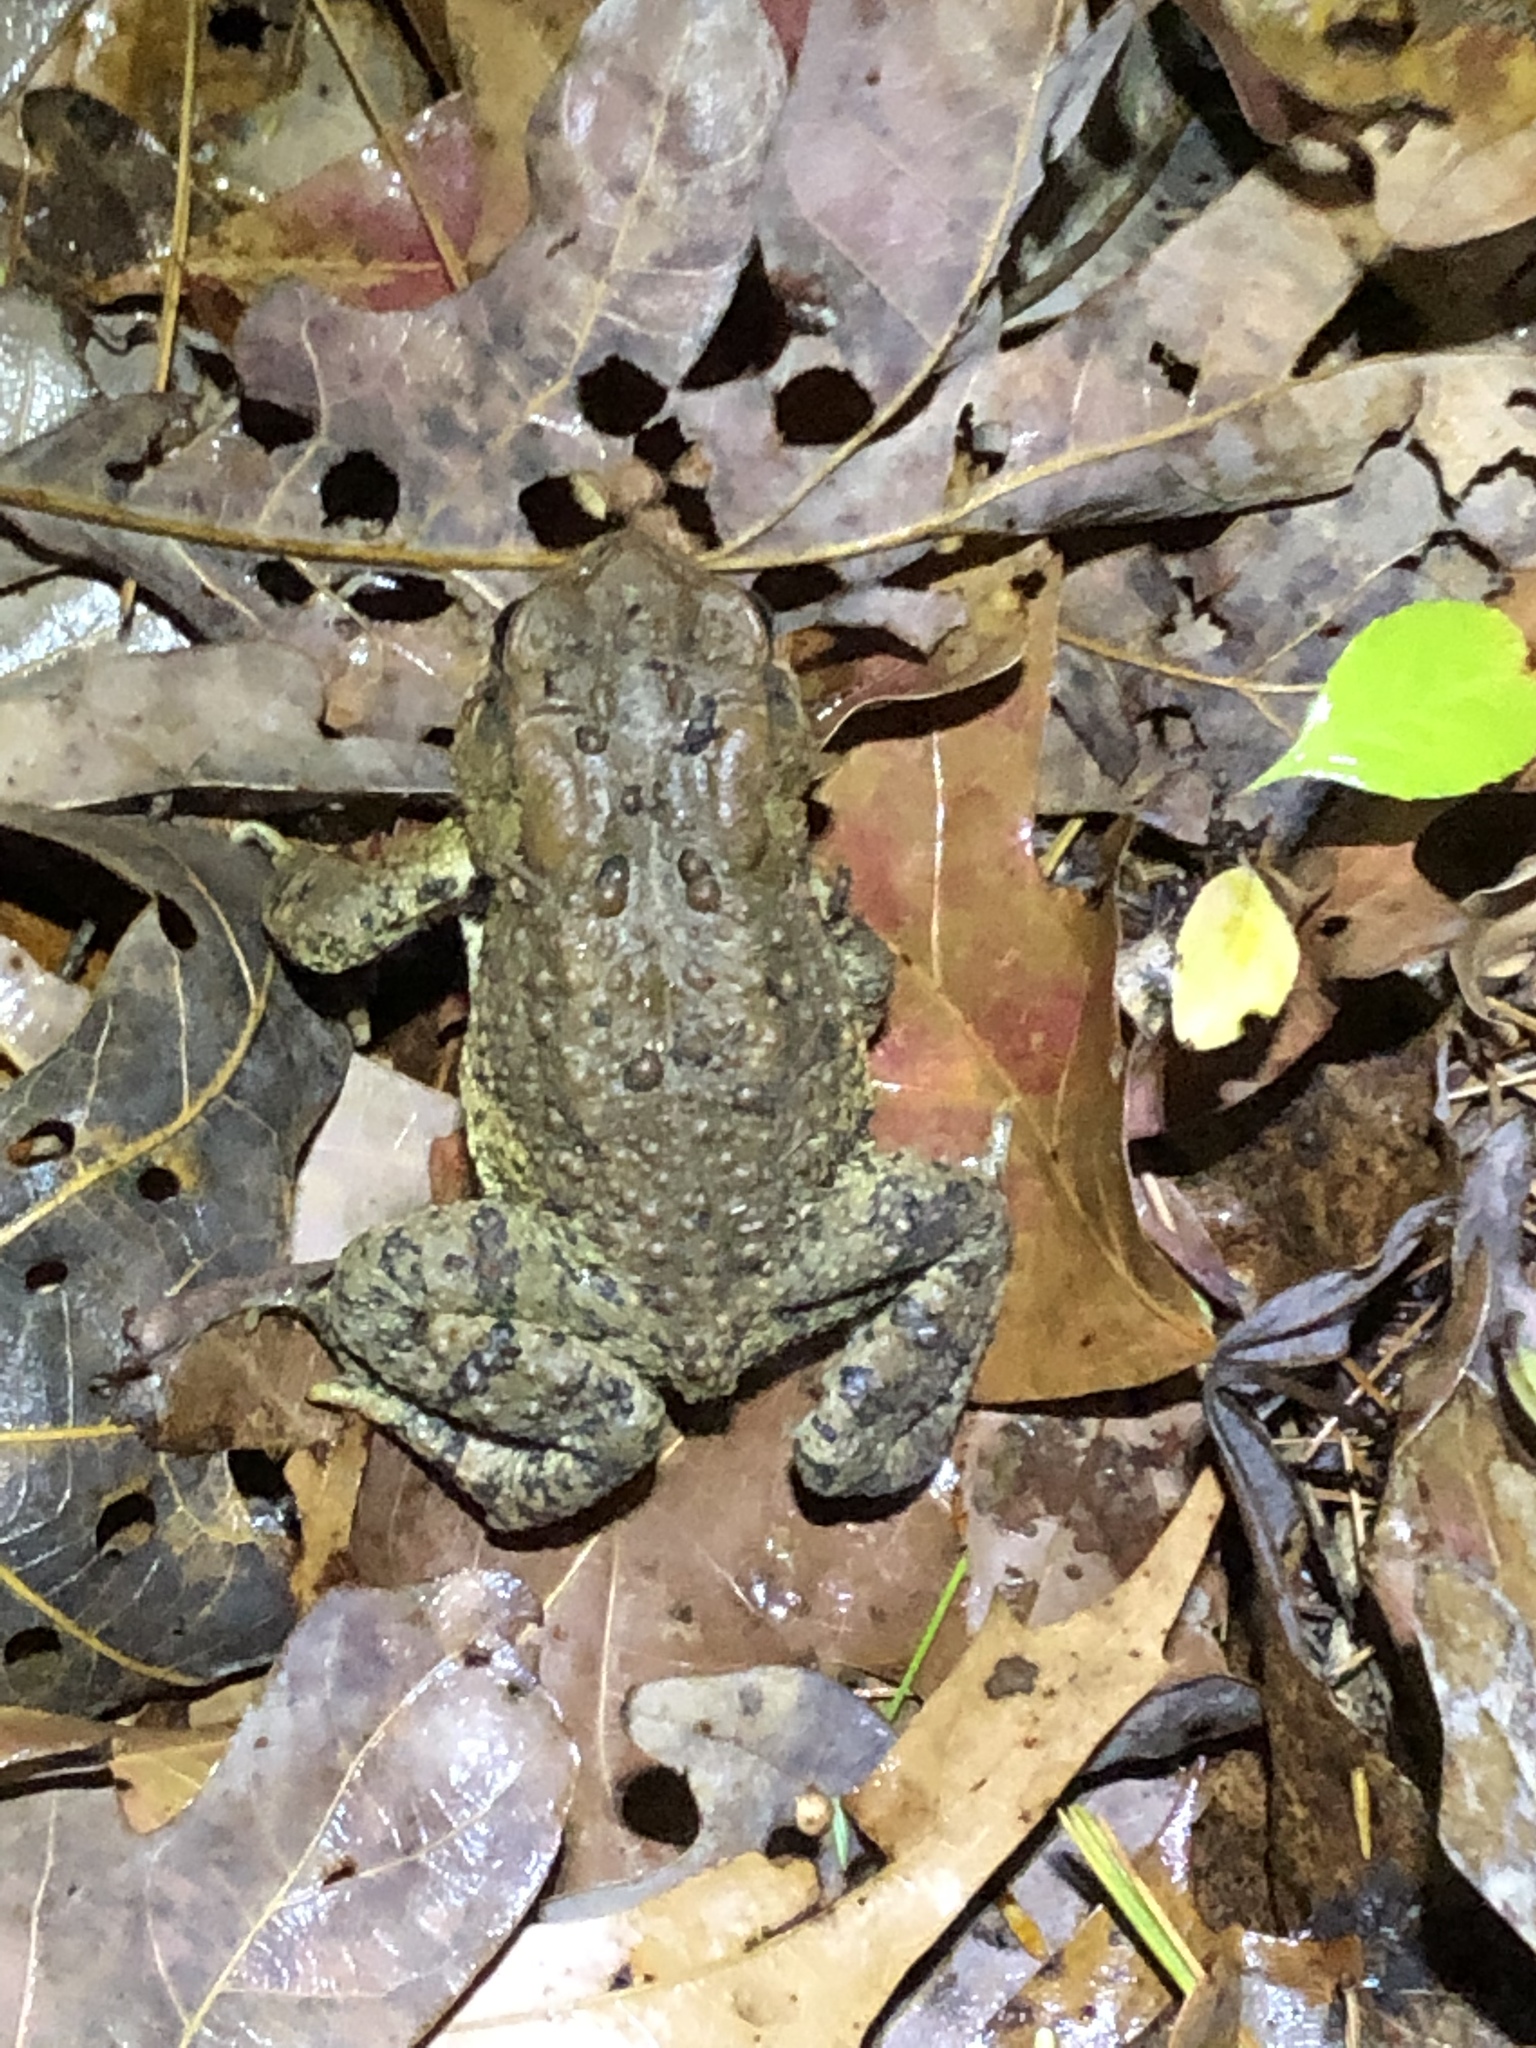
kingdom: Animalia
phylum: Chordata
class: Amphibia
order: Anura
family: Bufonidae
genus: Anaxyrus
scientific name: Anaxyrus americanus
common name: American toad
